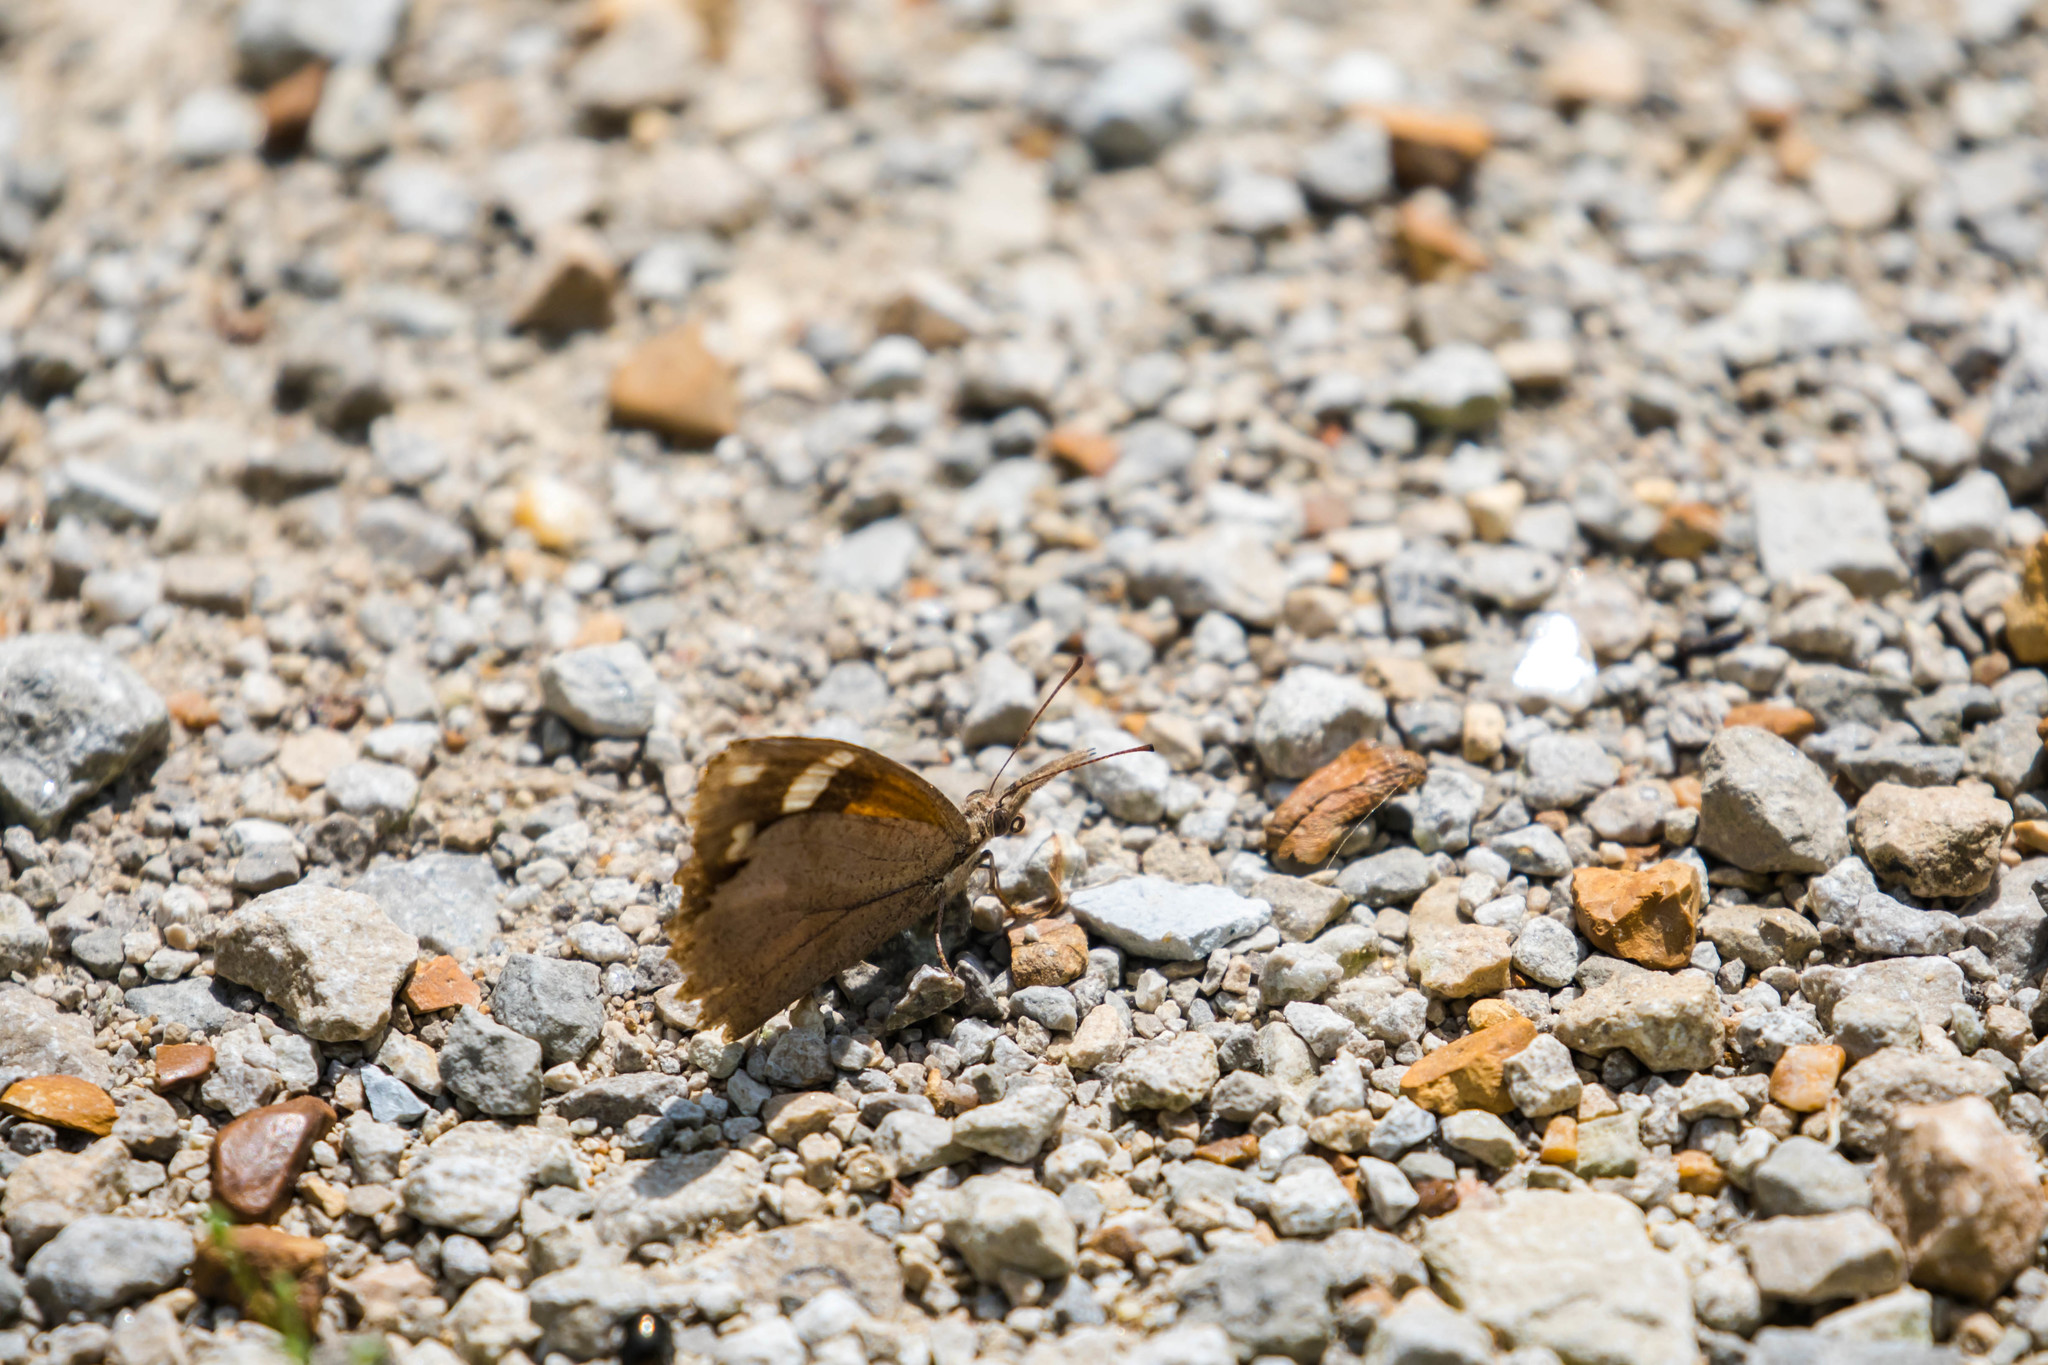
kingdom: Animalia
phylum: Arthropoda
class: Insecta
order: Lepidoptera
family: Nymphalidae
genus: Libytheana
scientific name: Libytheana carinenta
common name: American snout
